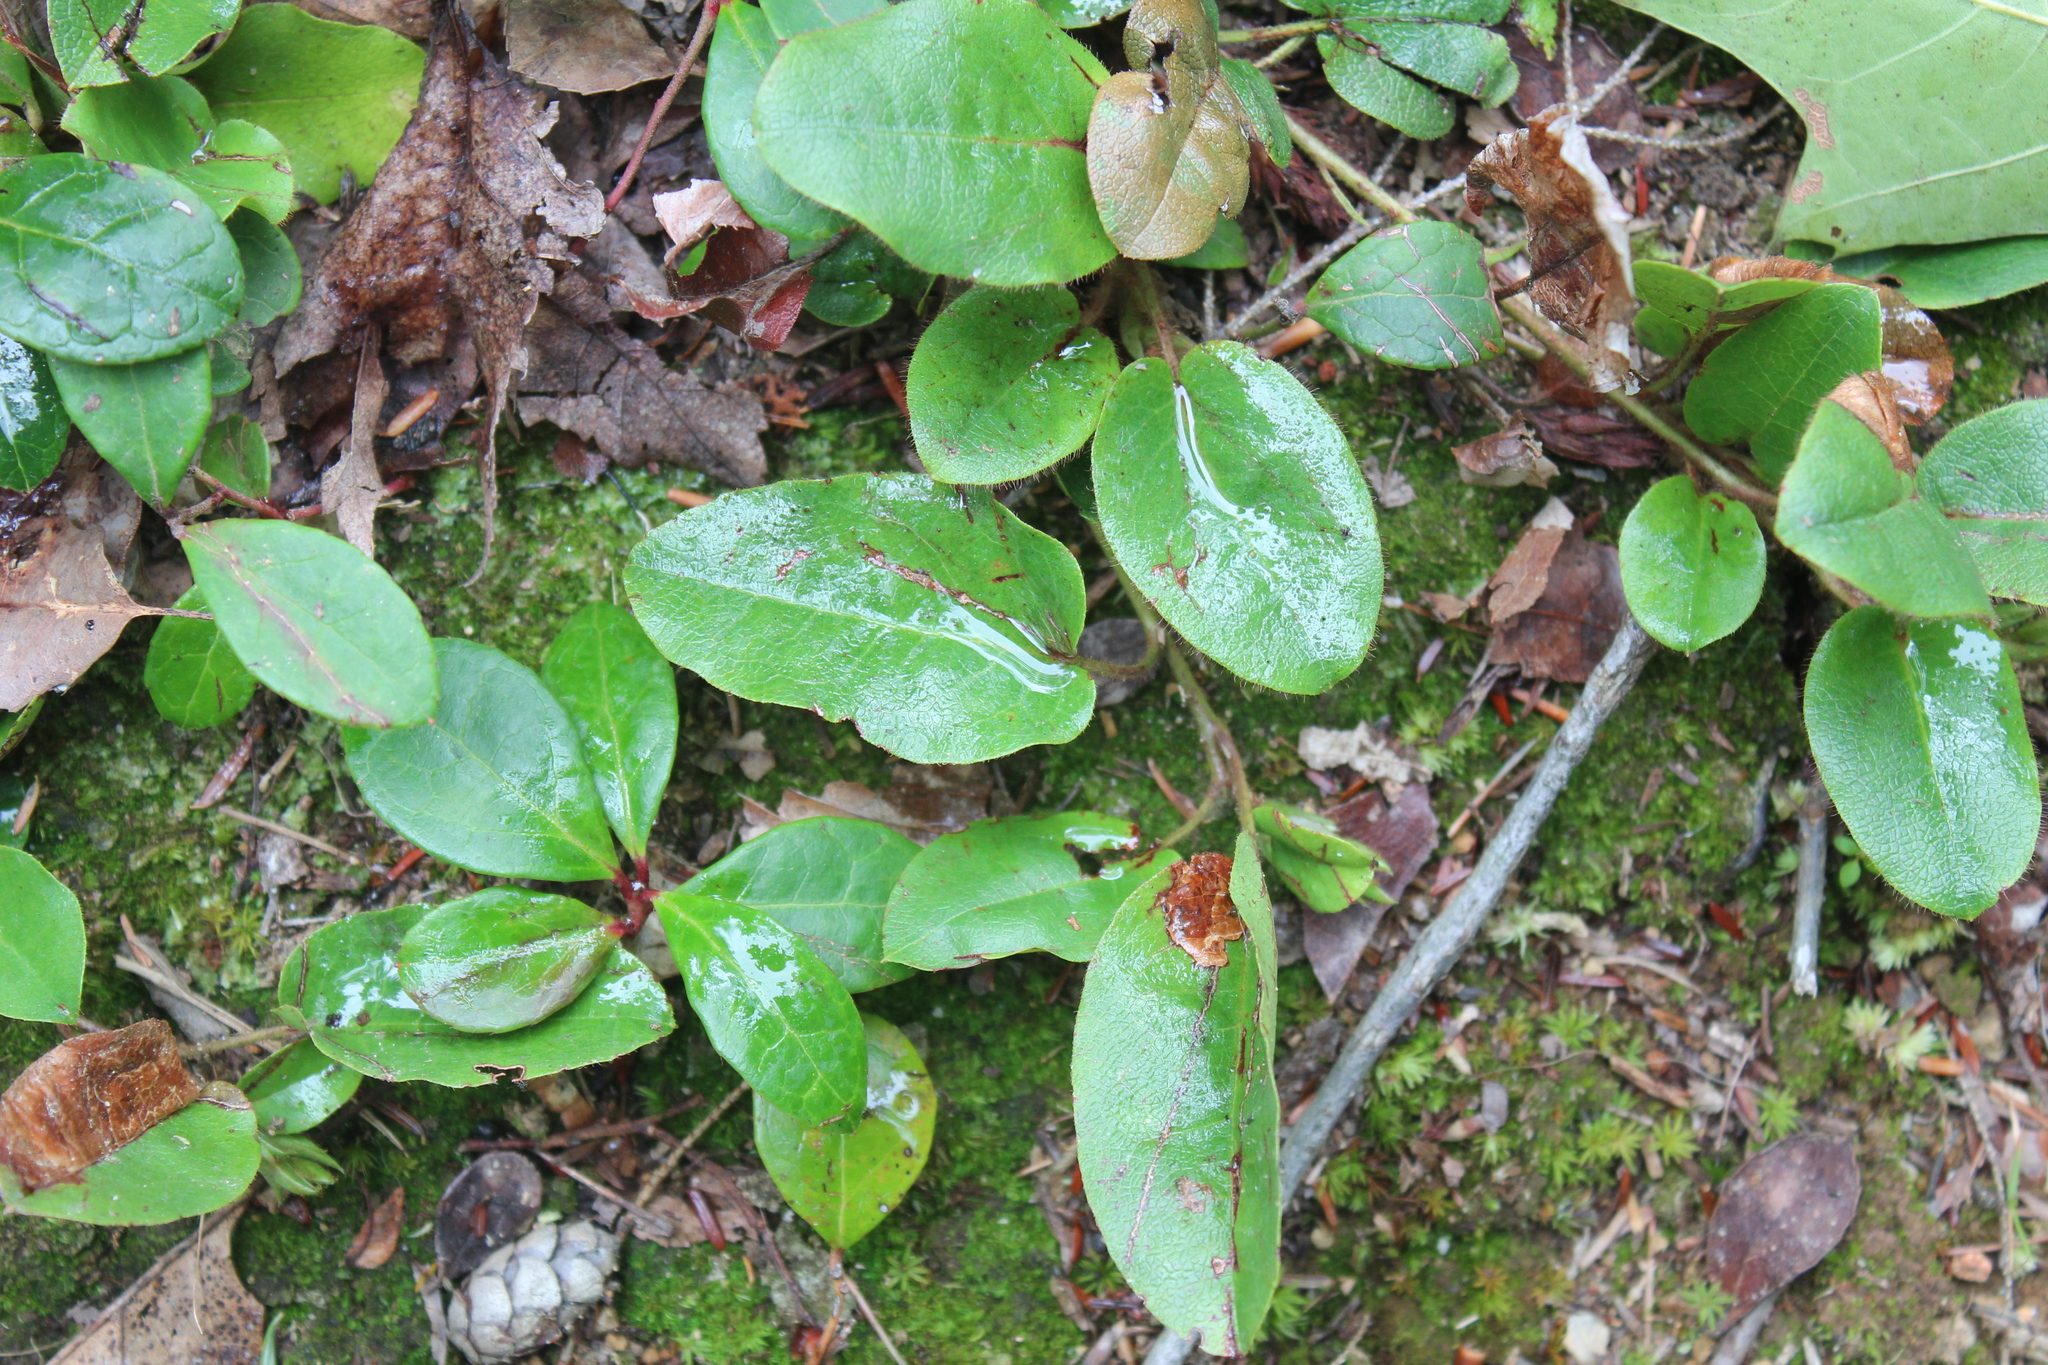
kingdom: Plantae
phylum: Tracheophyta
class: Magnoliopsida
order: Ericales
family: Ericaceae
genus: Epigaea
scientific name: Epigaea repens
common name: Gravelroot
